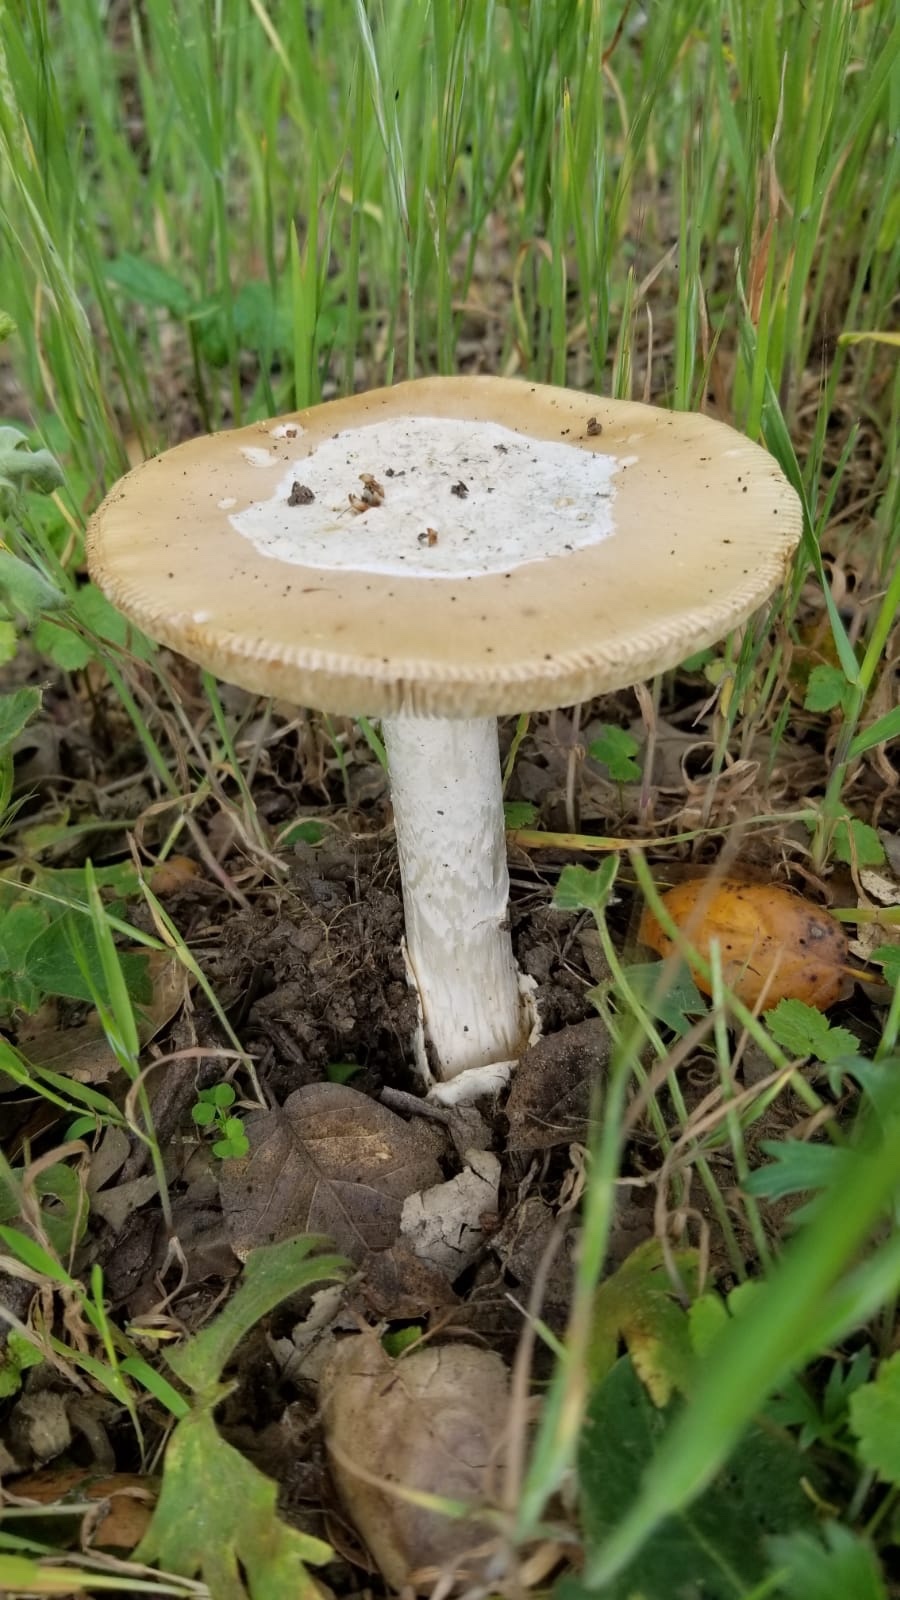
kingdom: Fungi
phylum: Basidiomycota
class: Agaricomycetes
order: Agaricales
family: Amanitaceae
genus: Amanita
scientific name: Amanita velosa
